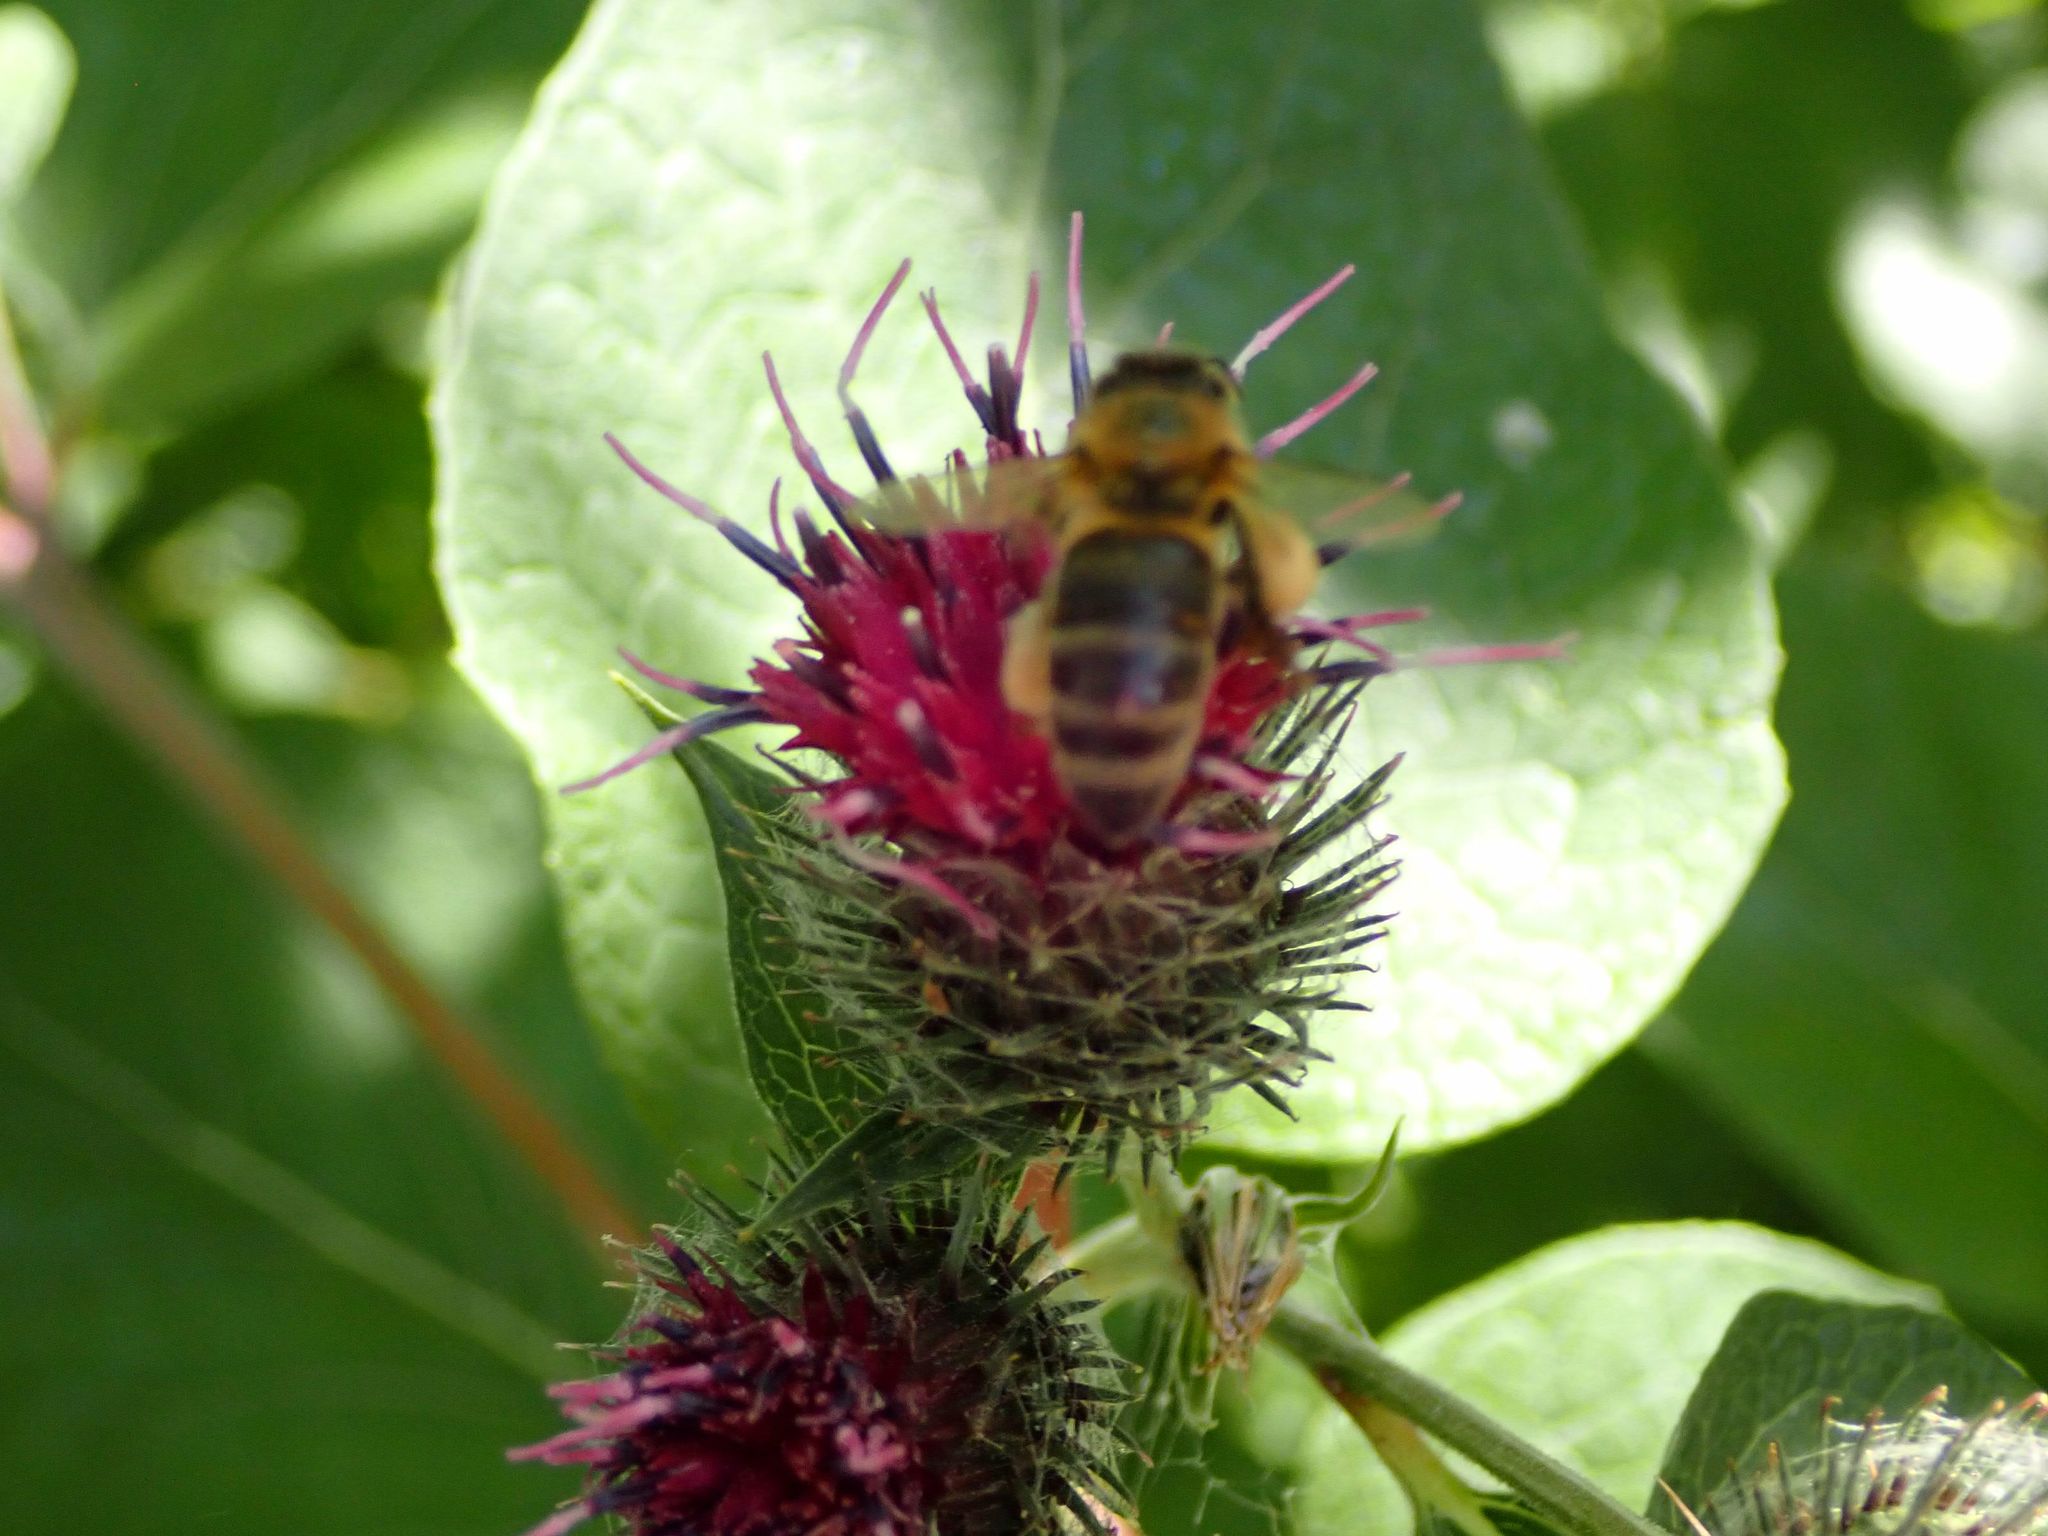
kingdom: Animalia
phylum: Arthropoda
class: Insecta
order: Hymenoptera
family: Apidae
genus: Apis
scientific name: Apis mellifera
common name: Honey bee
